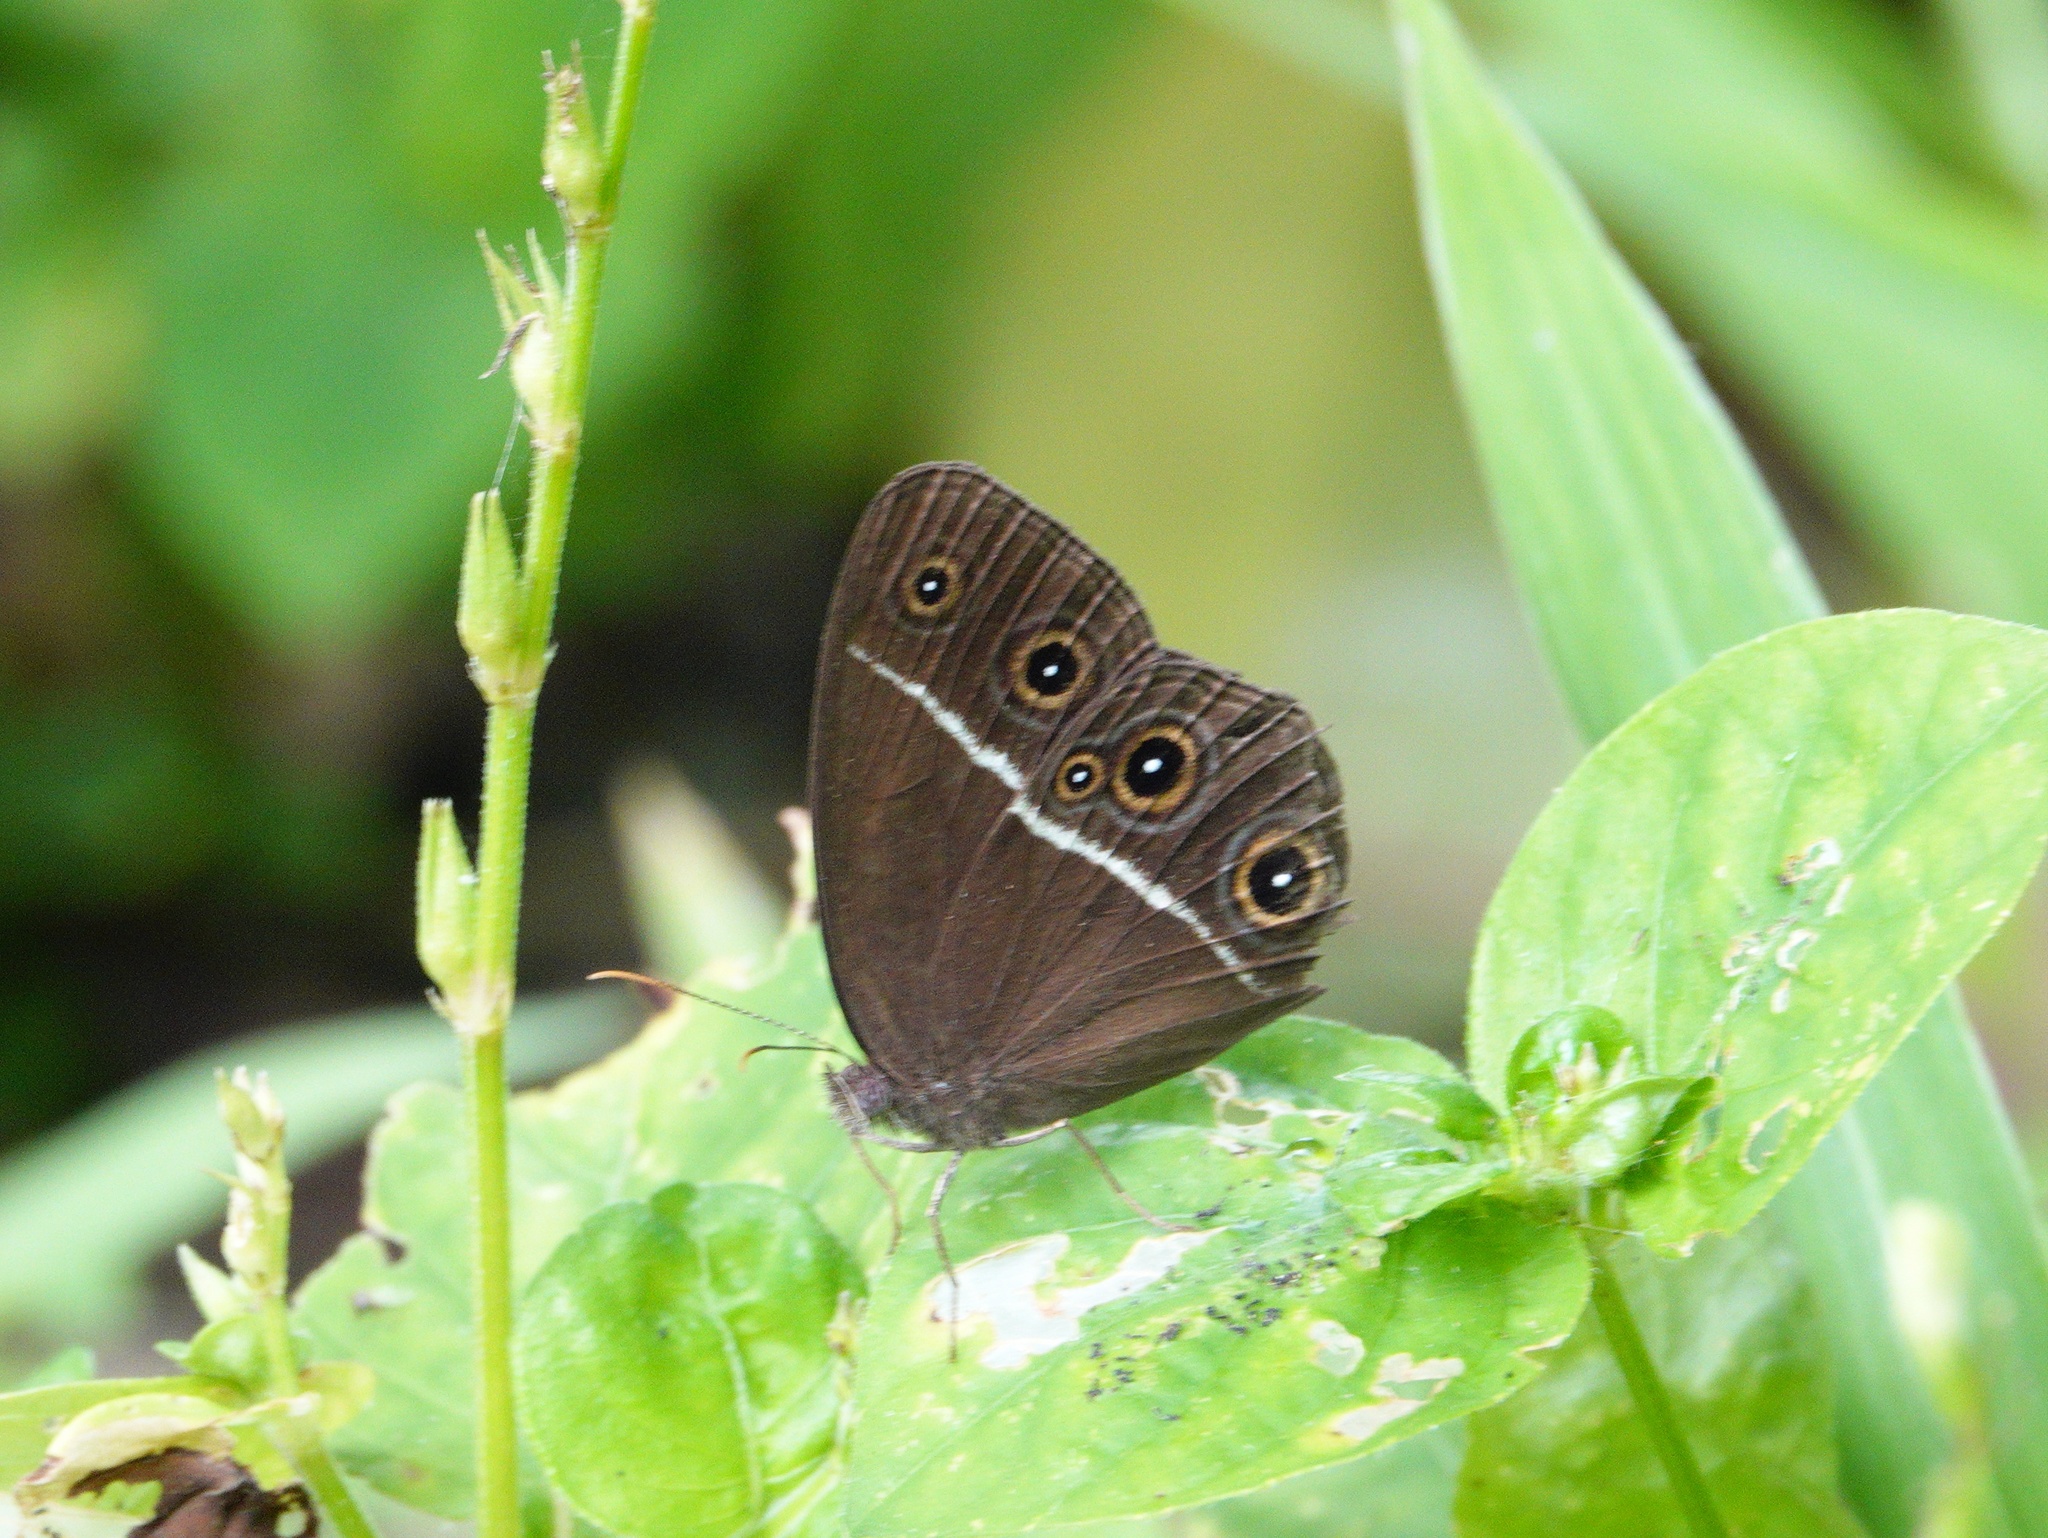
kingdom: Animalia
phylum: Arthropoda
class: Insecta
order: Lepidoptera
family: Nymphalidae
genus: Orsotriaena
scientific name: Orsotriaena medus
